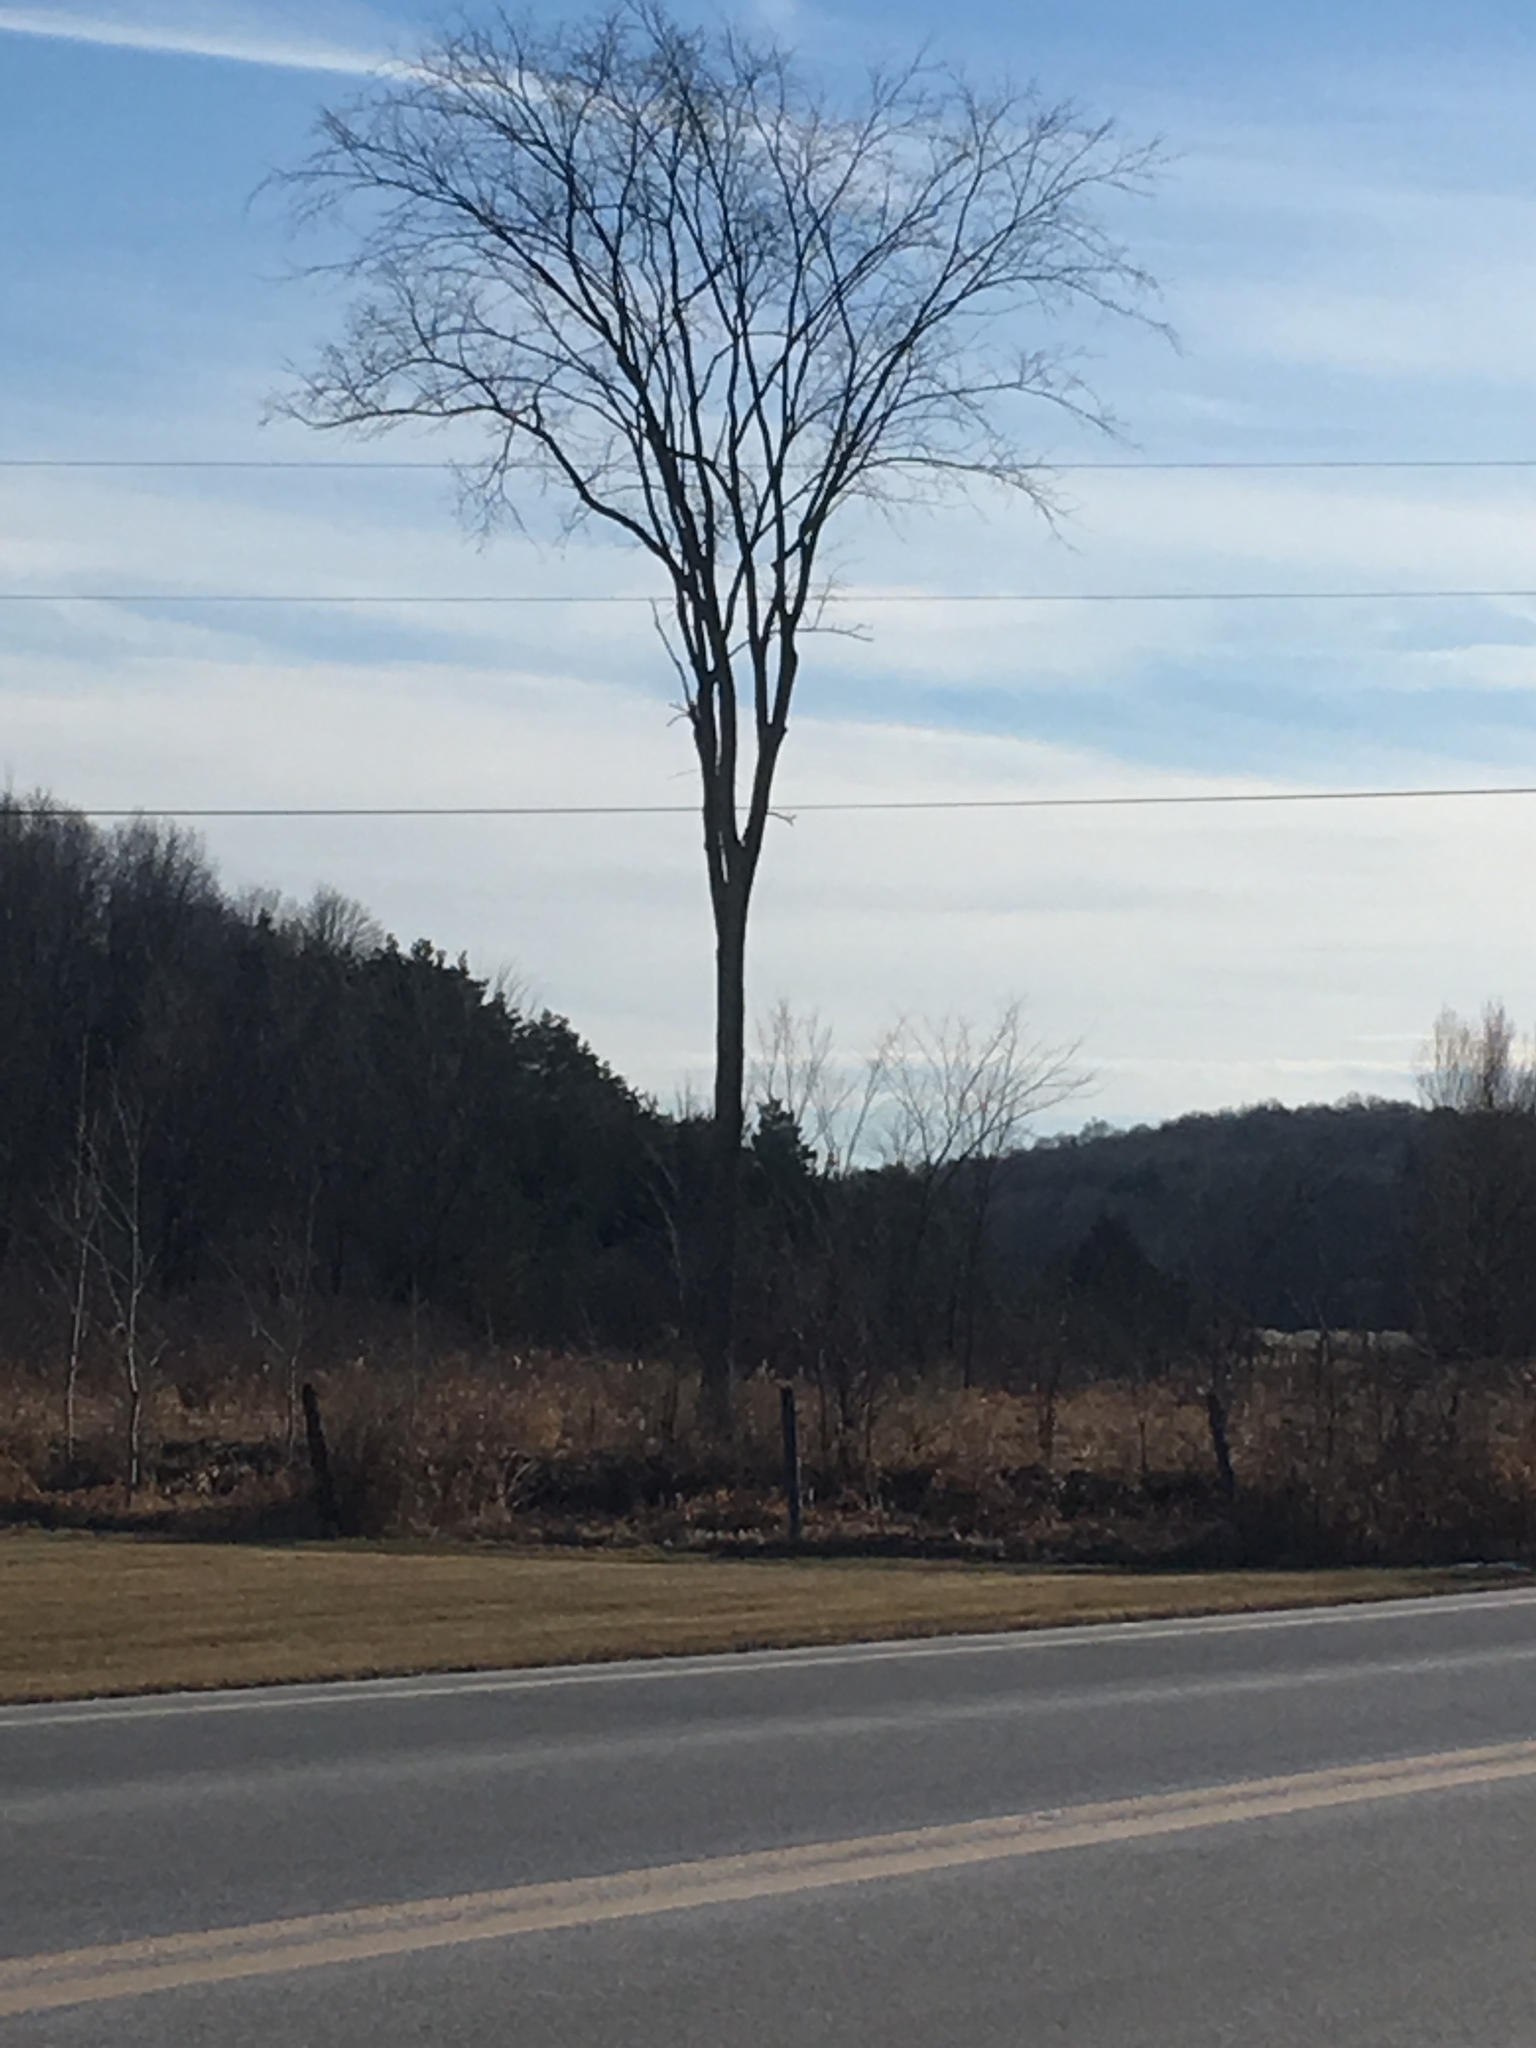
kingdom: Plantae
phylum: Tracheophyta
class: Magnoliopsida
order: Rosales
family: Ulmaceae
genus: Ulmus
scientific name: Ulmus americana
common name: American elm
